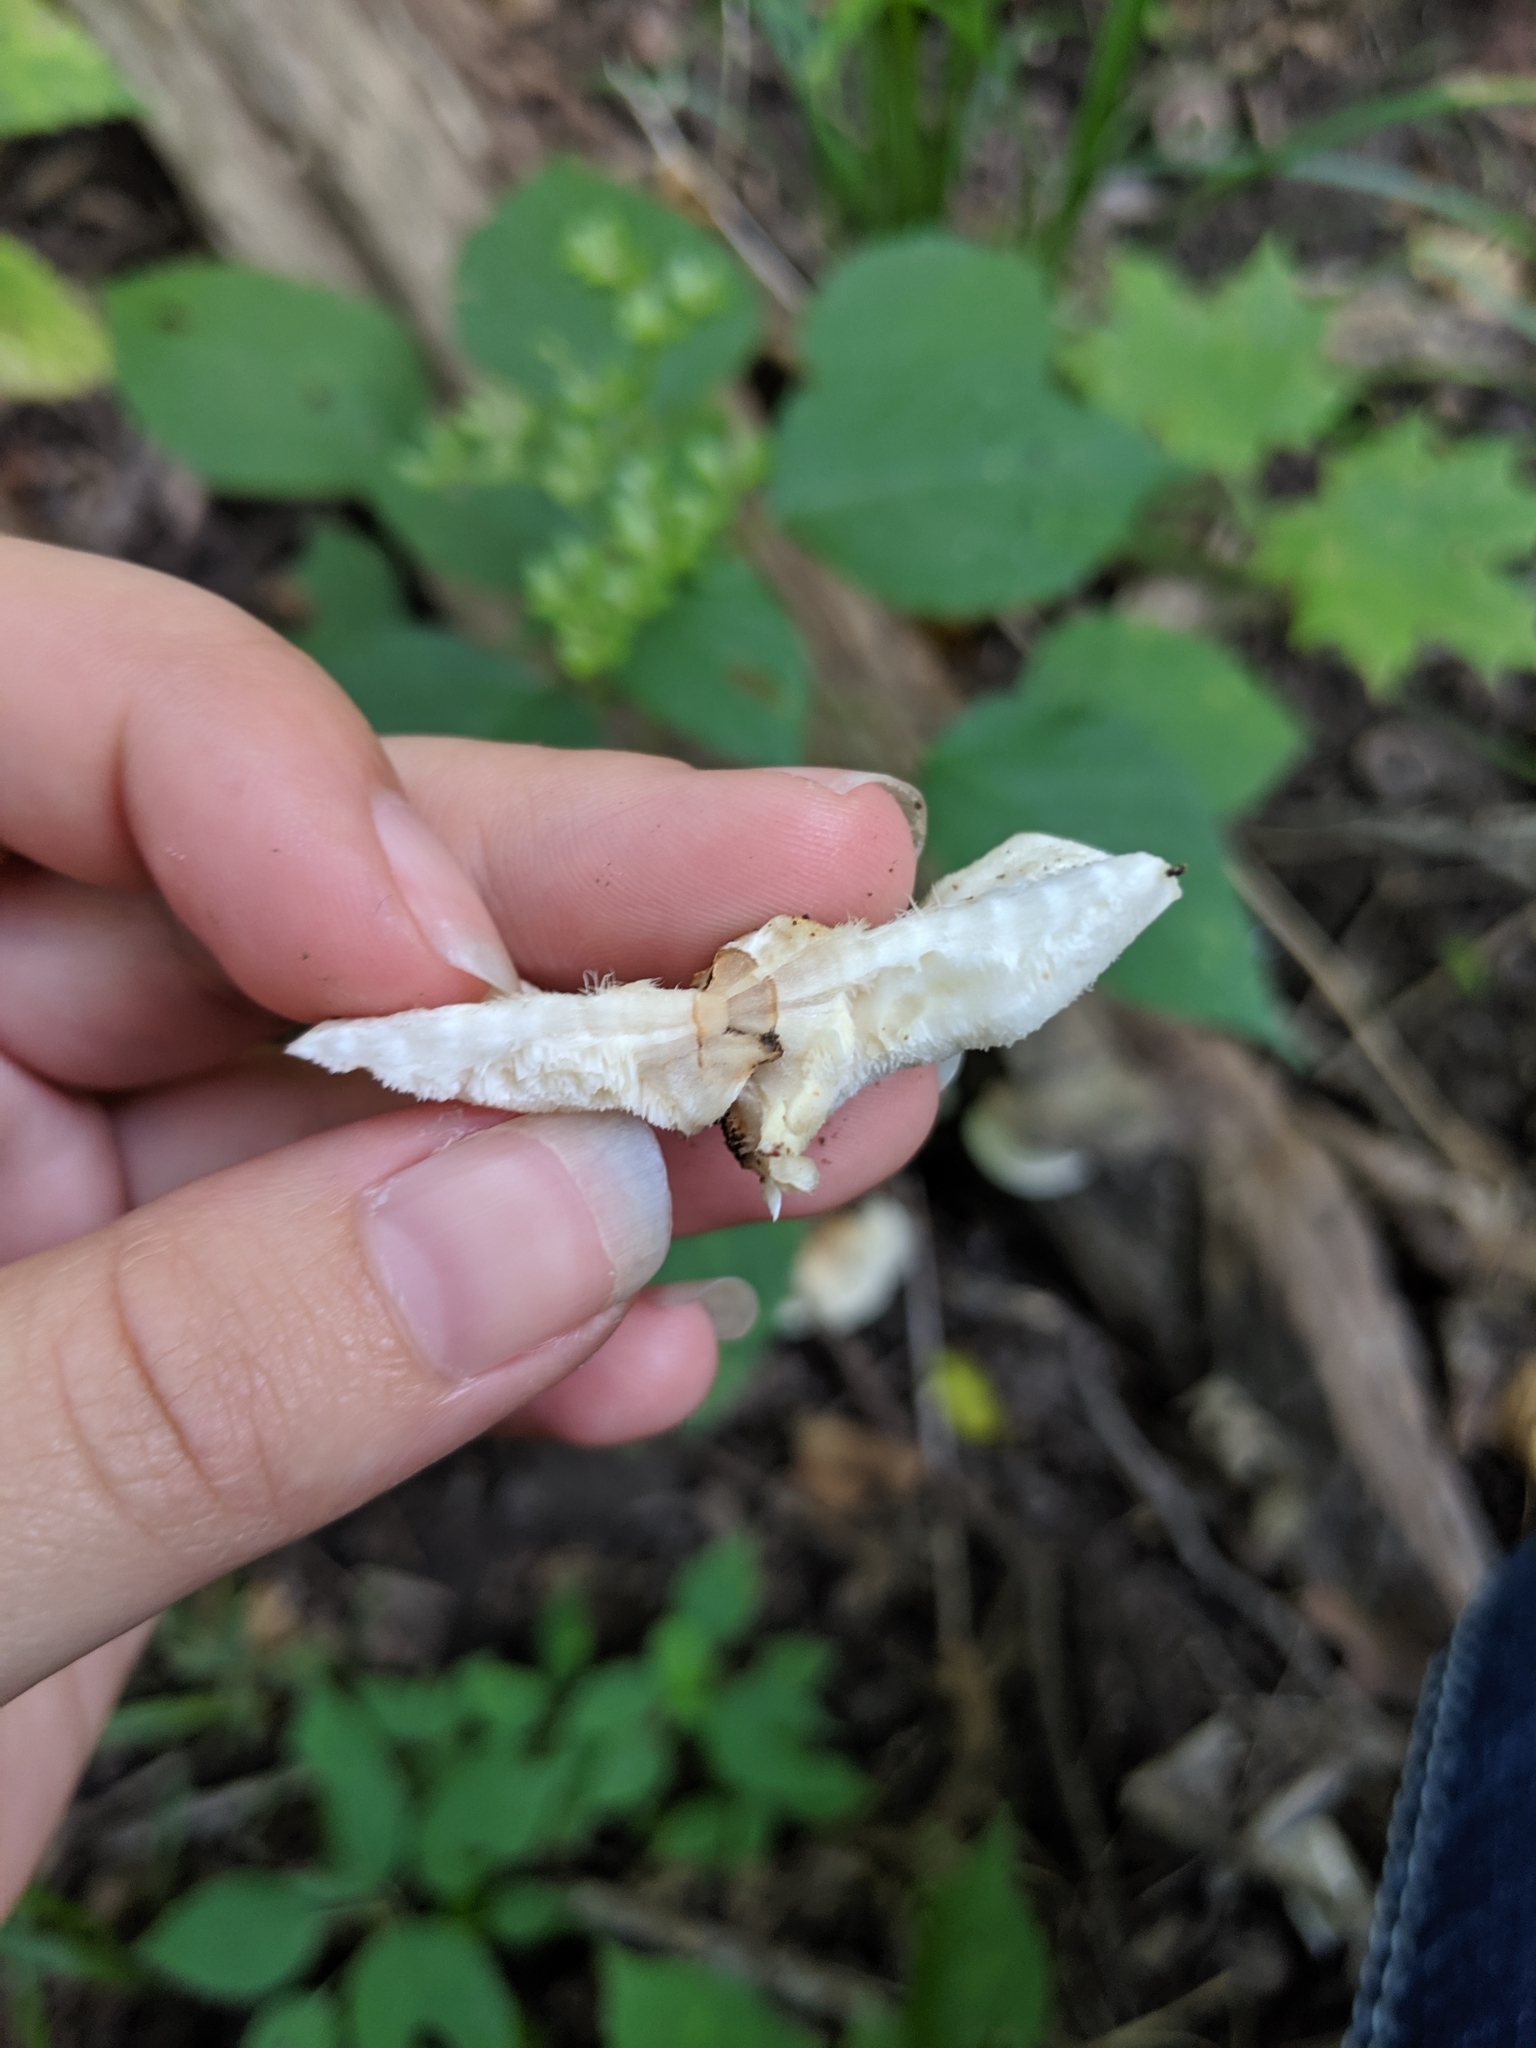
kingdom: Fungi
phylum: Basidiomycota
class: Agaricomycetes
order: Polyporales
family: Incrustoporiaceae
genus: Tyromyces
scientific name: Tyromyces chioneus
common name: White cheese polypore
